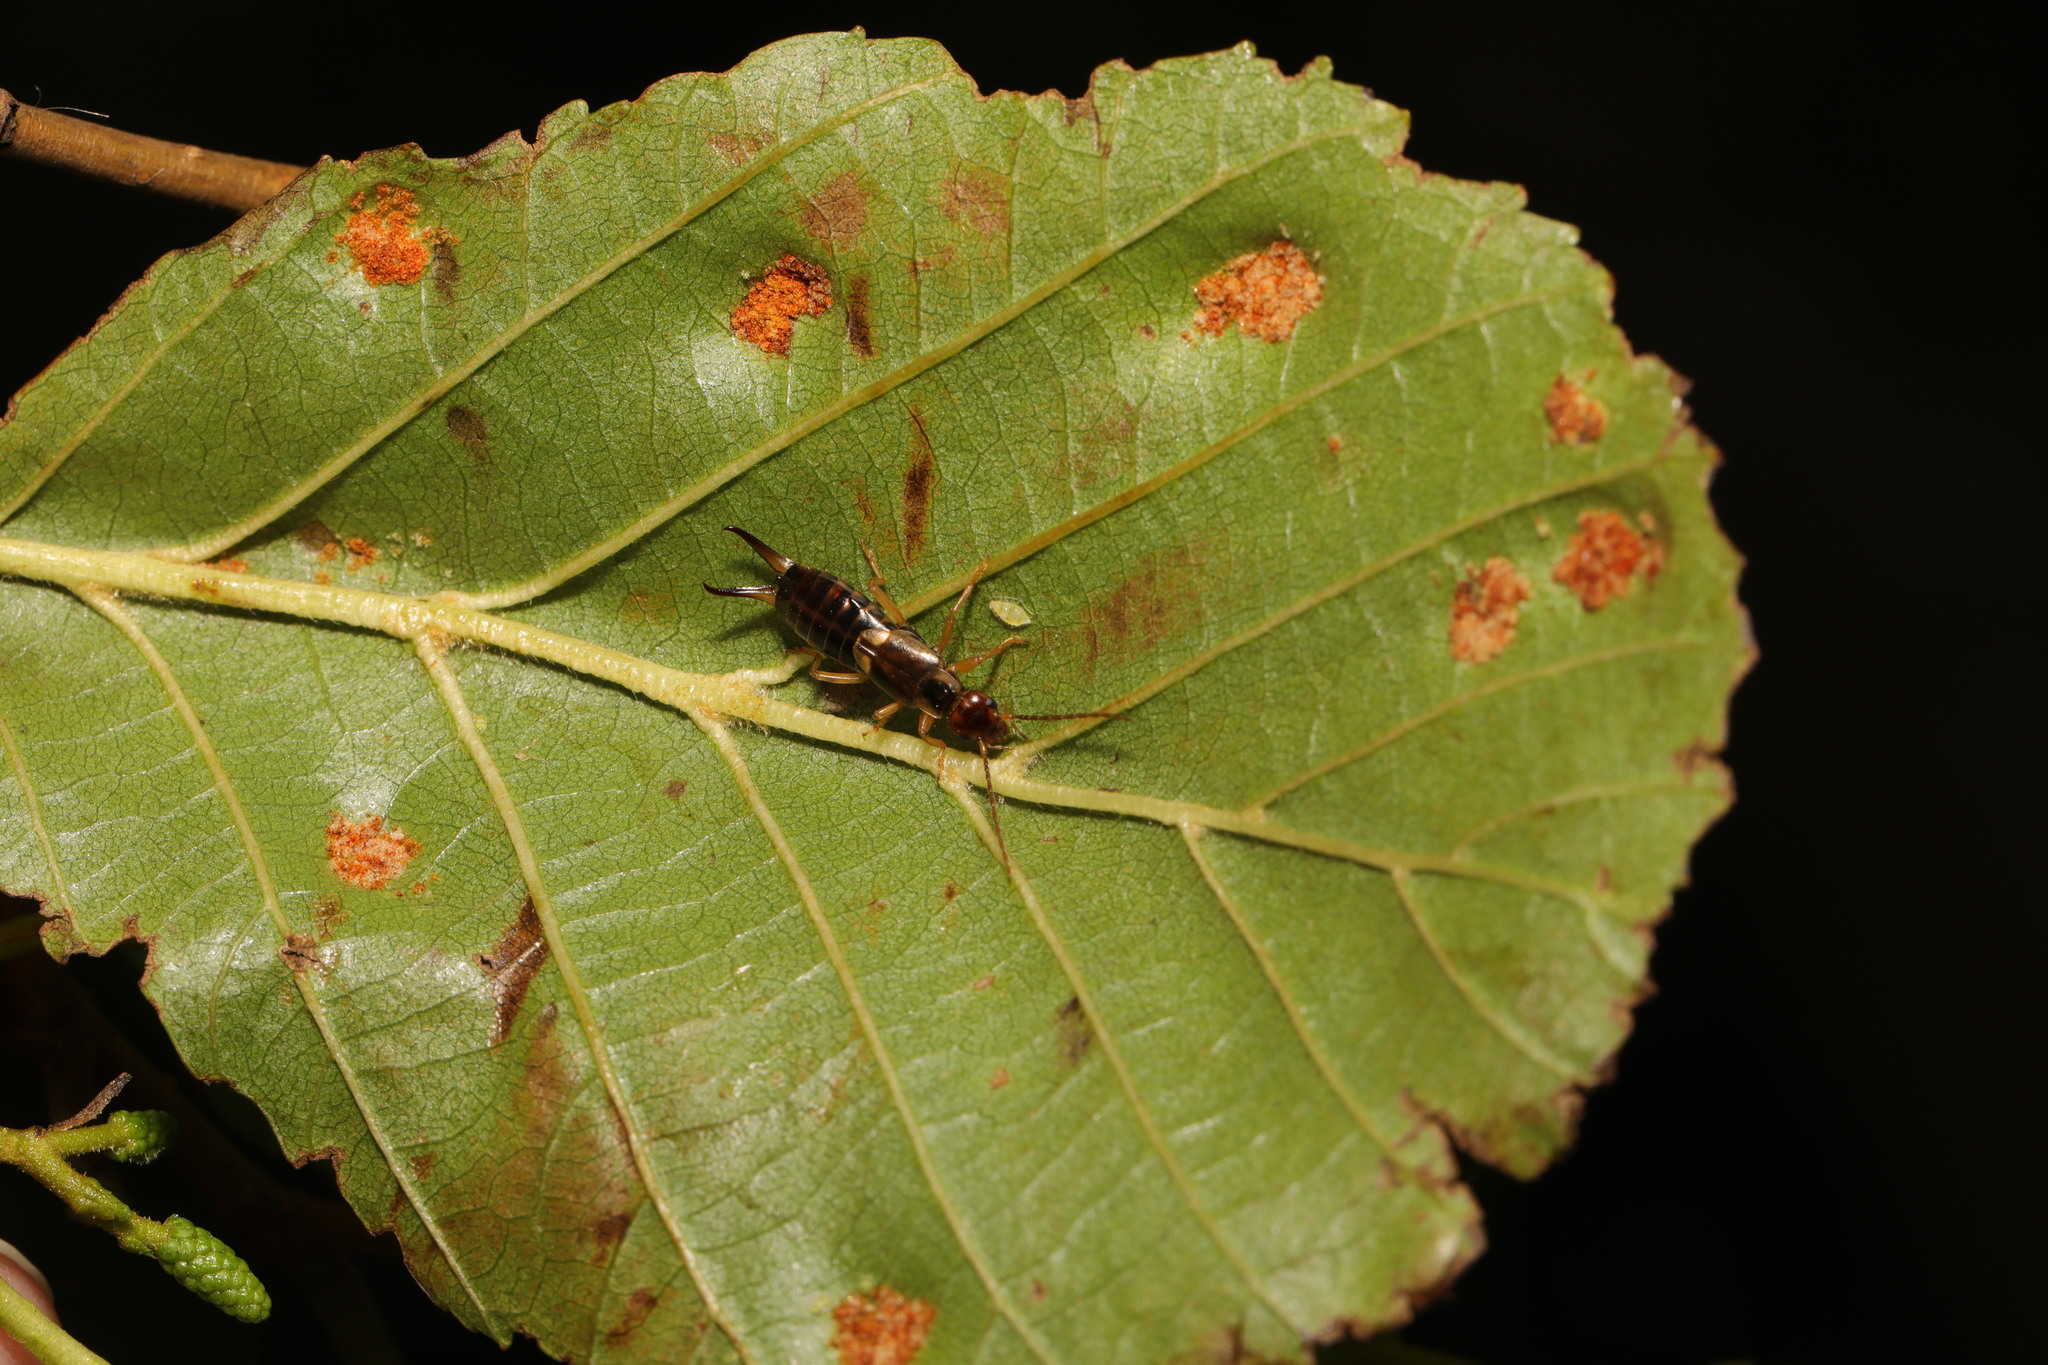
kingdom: Animalia
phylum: Arthropoda
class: Arachnida
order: Trombidiformes
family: Eriophyidae
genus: Acalitus
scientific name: Acalitus brevitarsus
